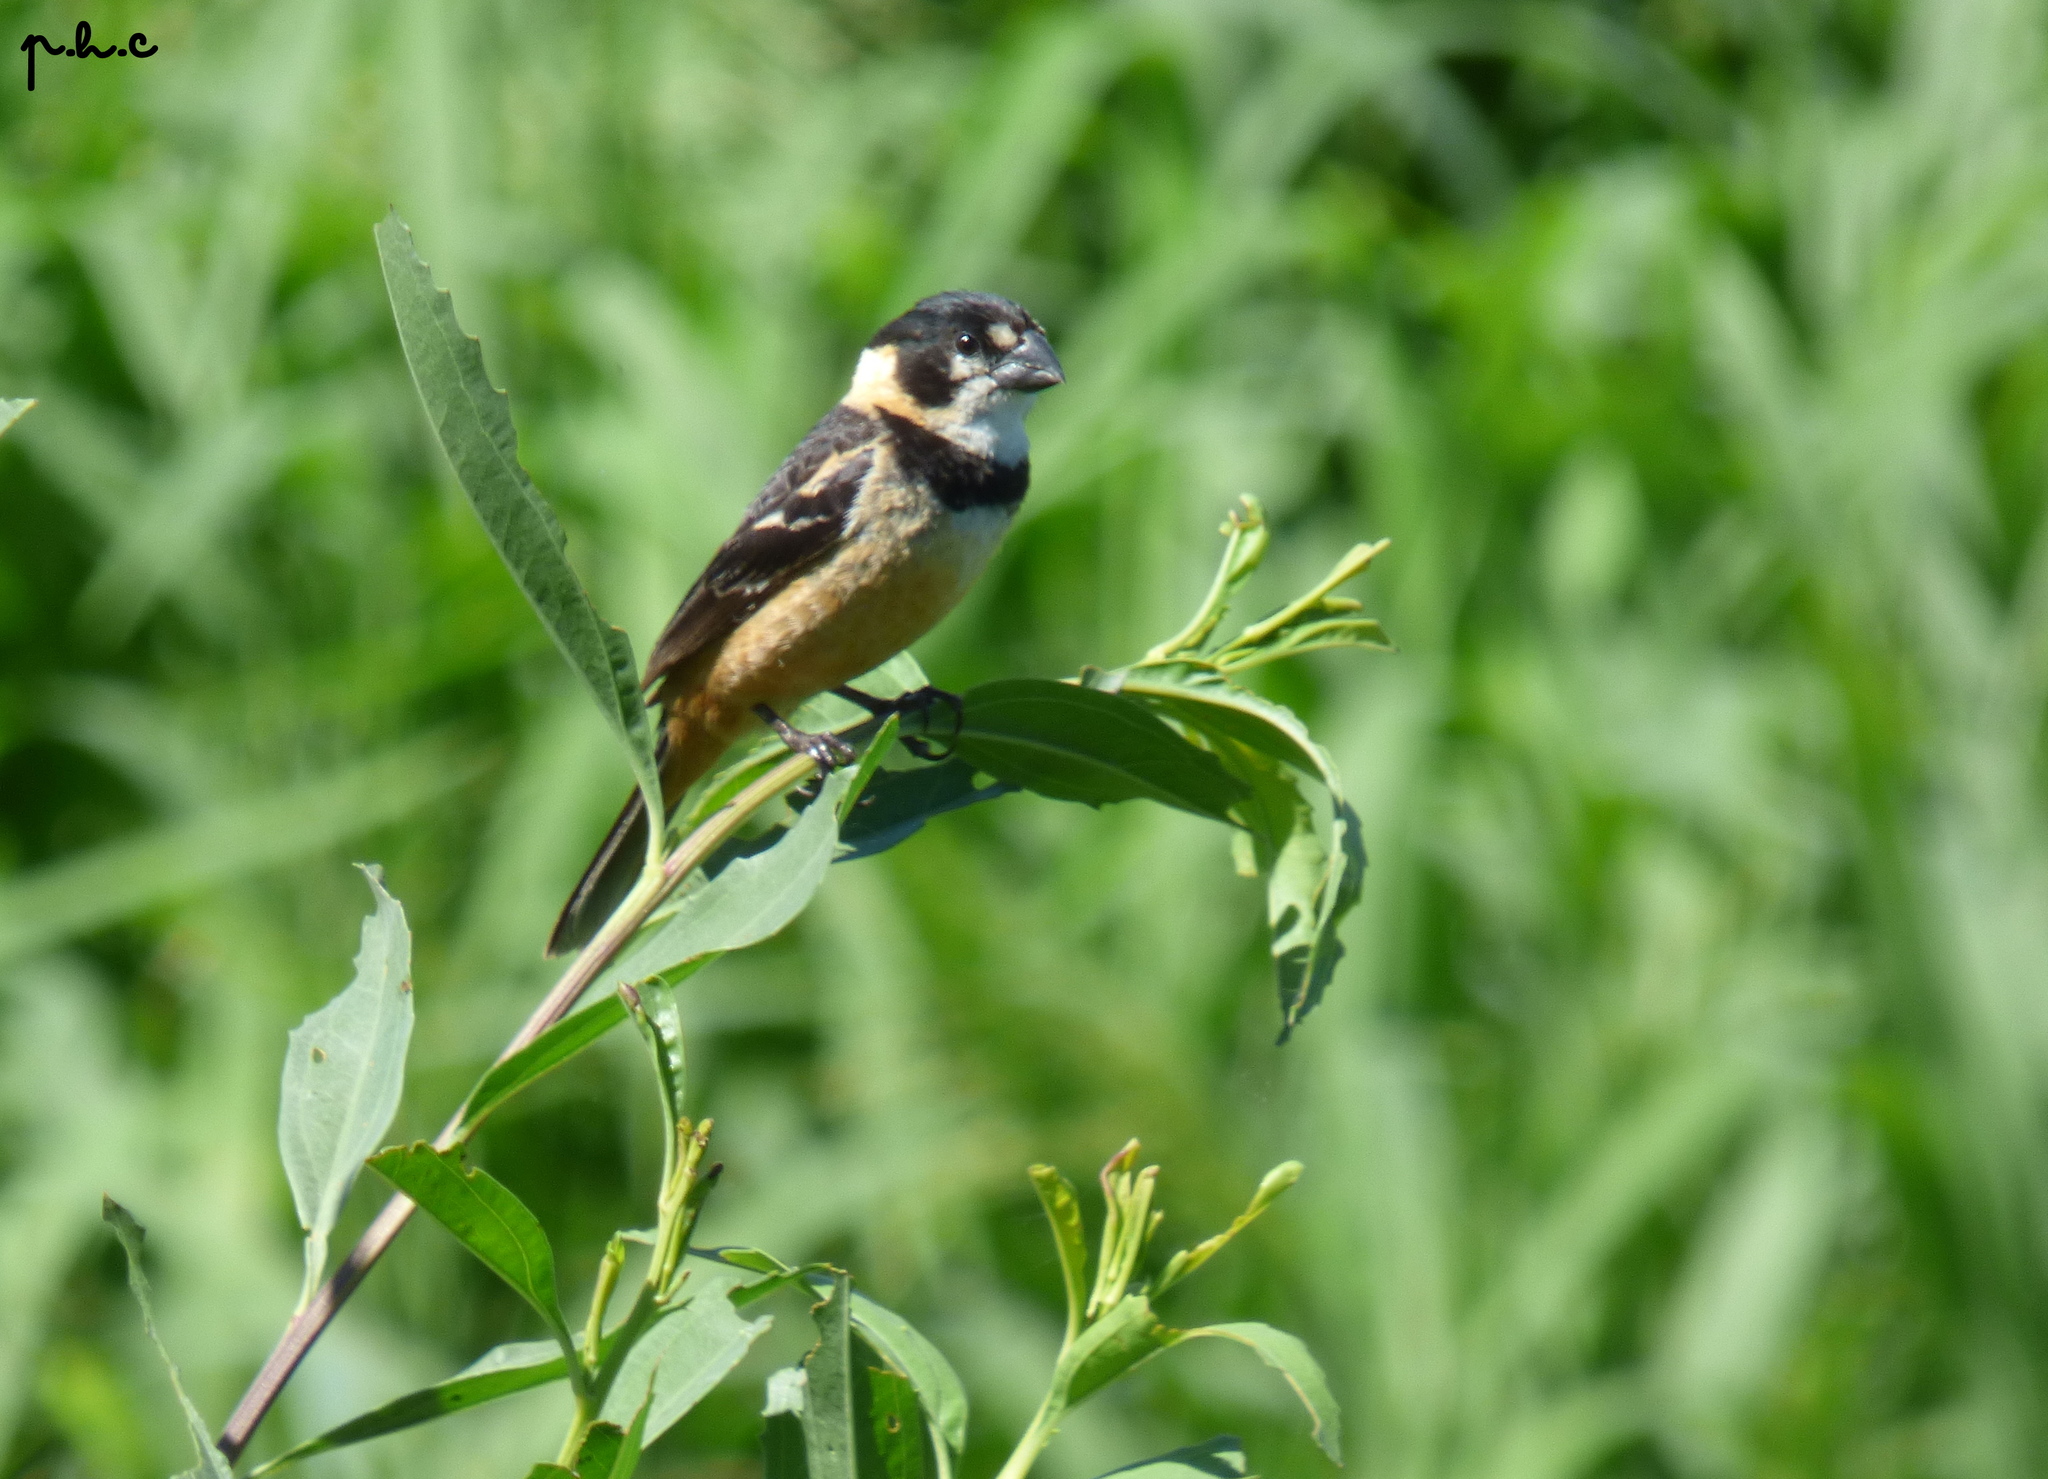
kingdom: Animalia
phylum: Chordata
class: Aves
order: Passeriformes
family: Thraupidae
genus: Sporophila
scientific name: Sporophila collaris
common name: Rusty-collared seedeater
